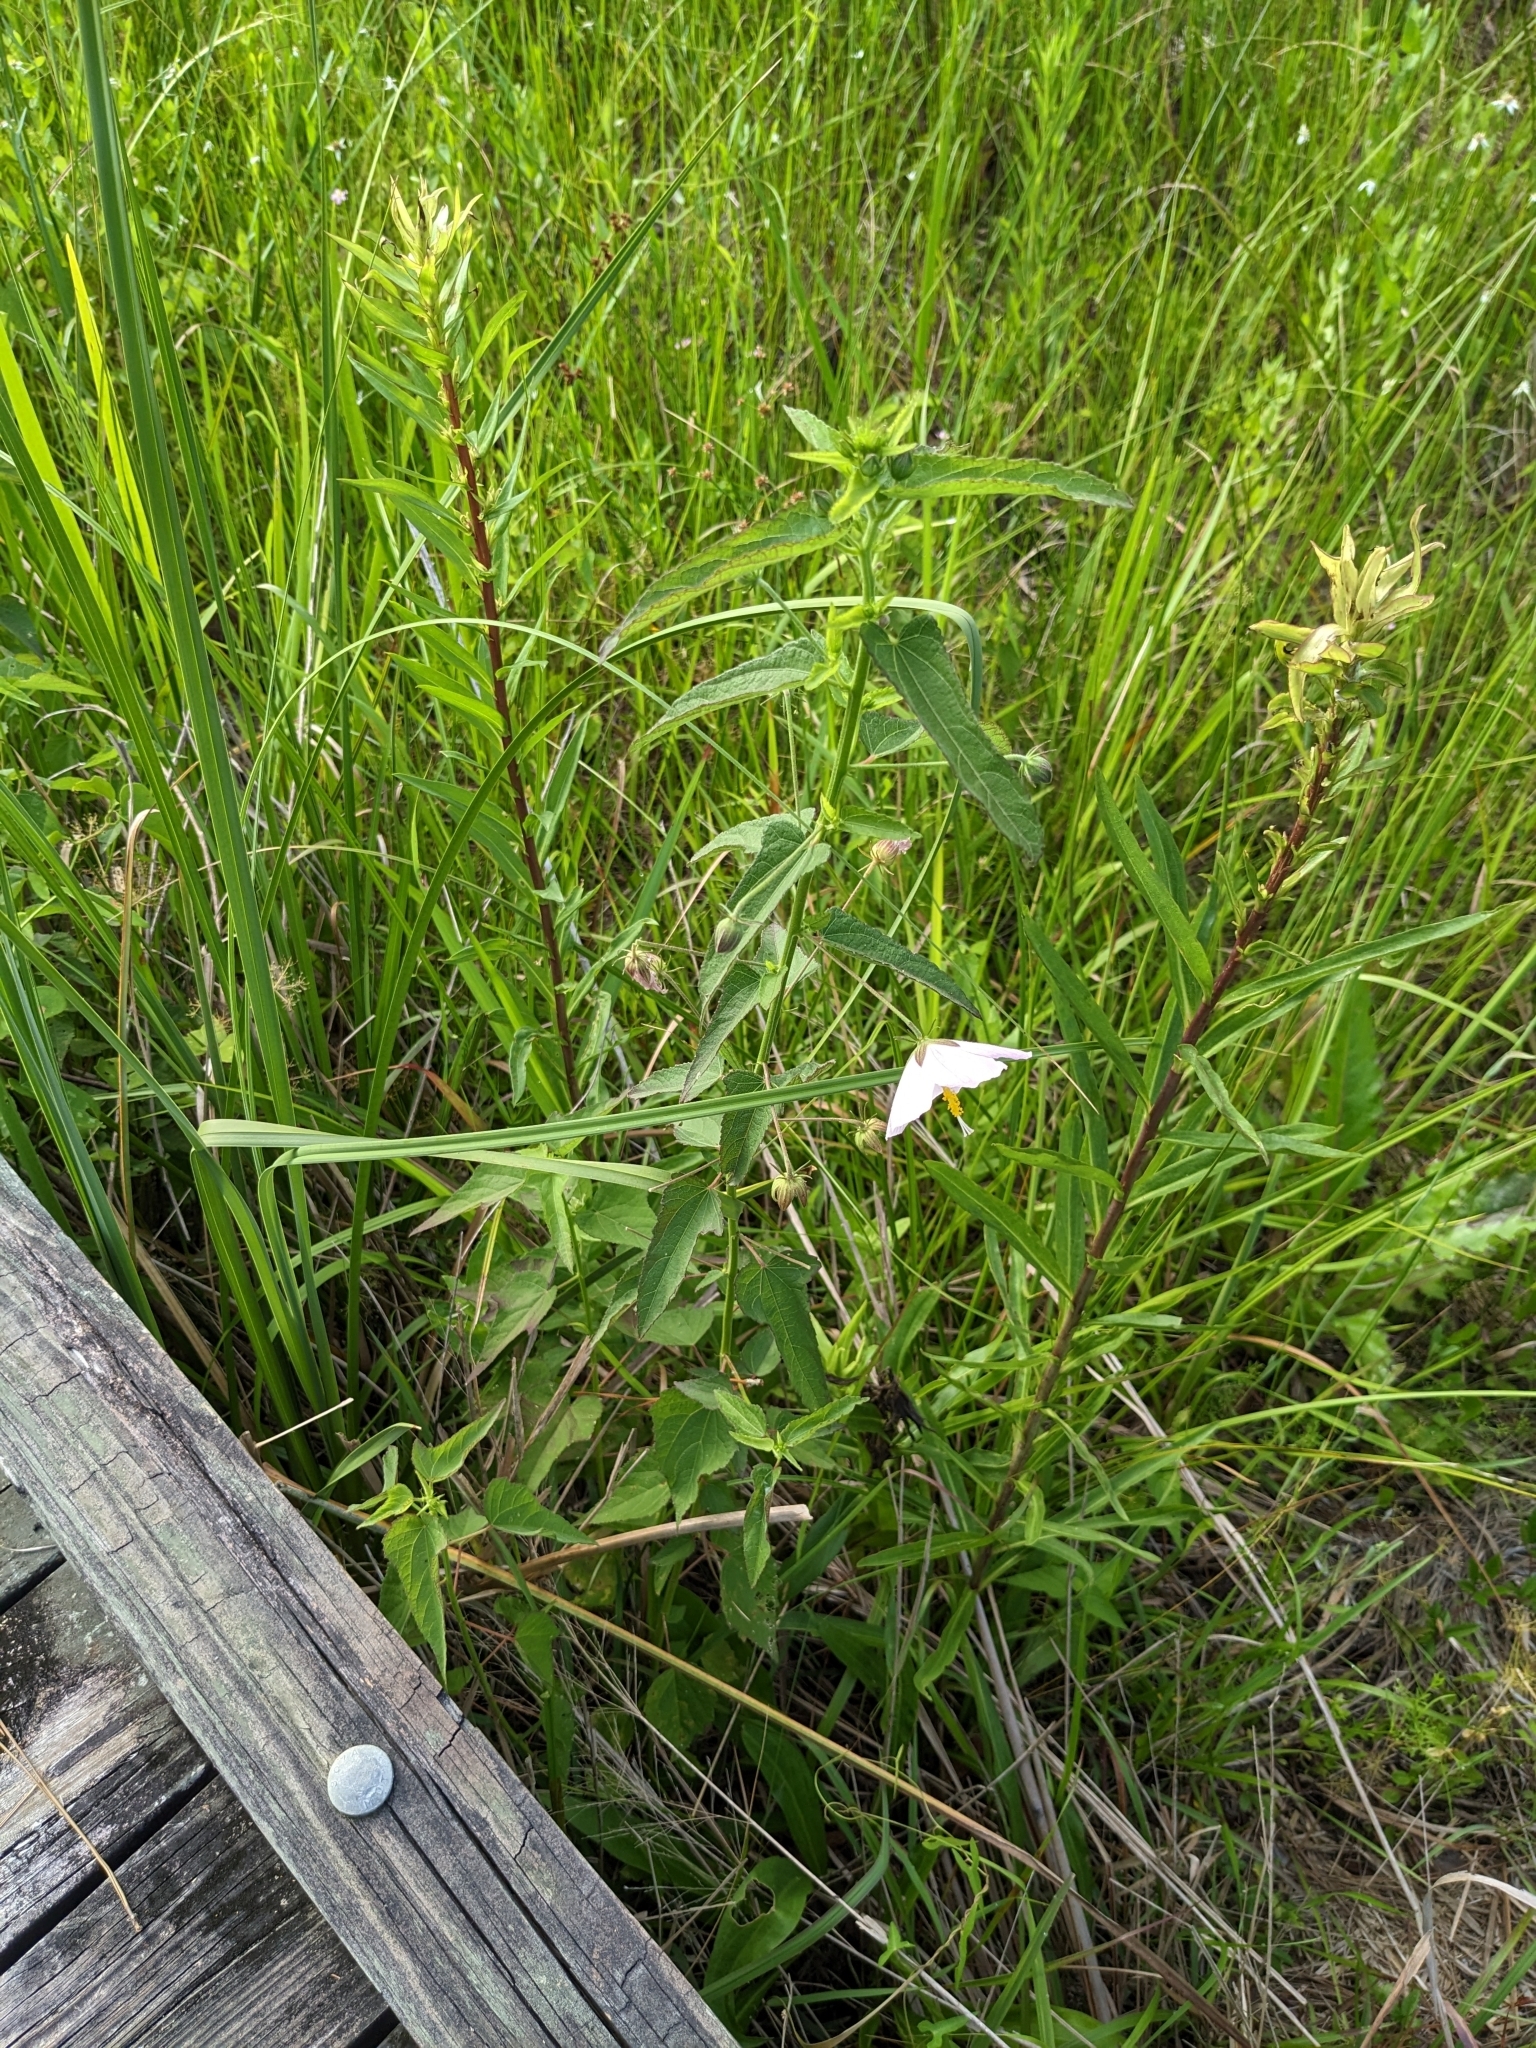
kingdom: Plantae
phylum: Tracheophyta
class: Magnoliopsida
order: Malvales
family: Malvaceae
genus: Kosteletzkya
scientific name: Kosteletzkya pentacarpos
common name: Virginia saltmarsh mallow
